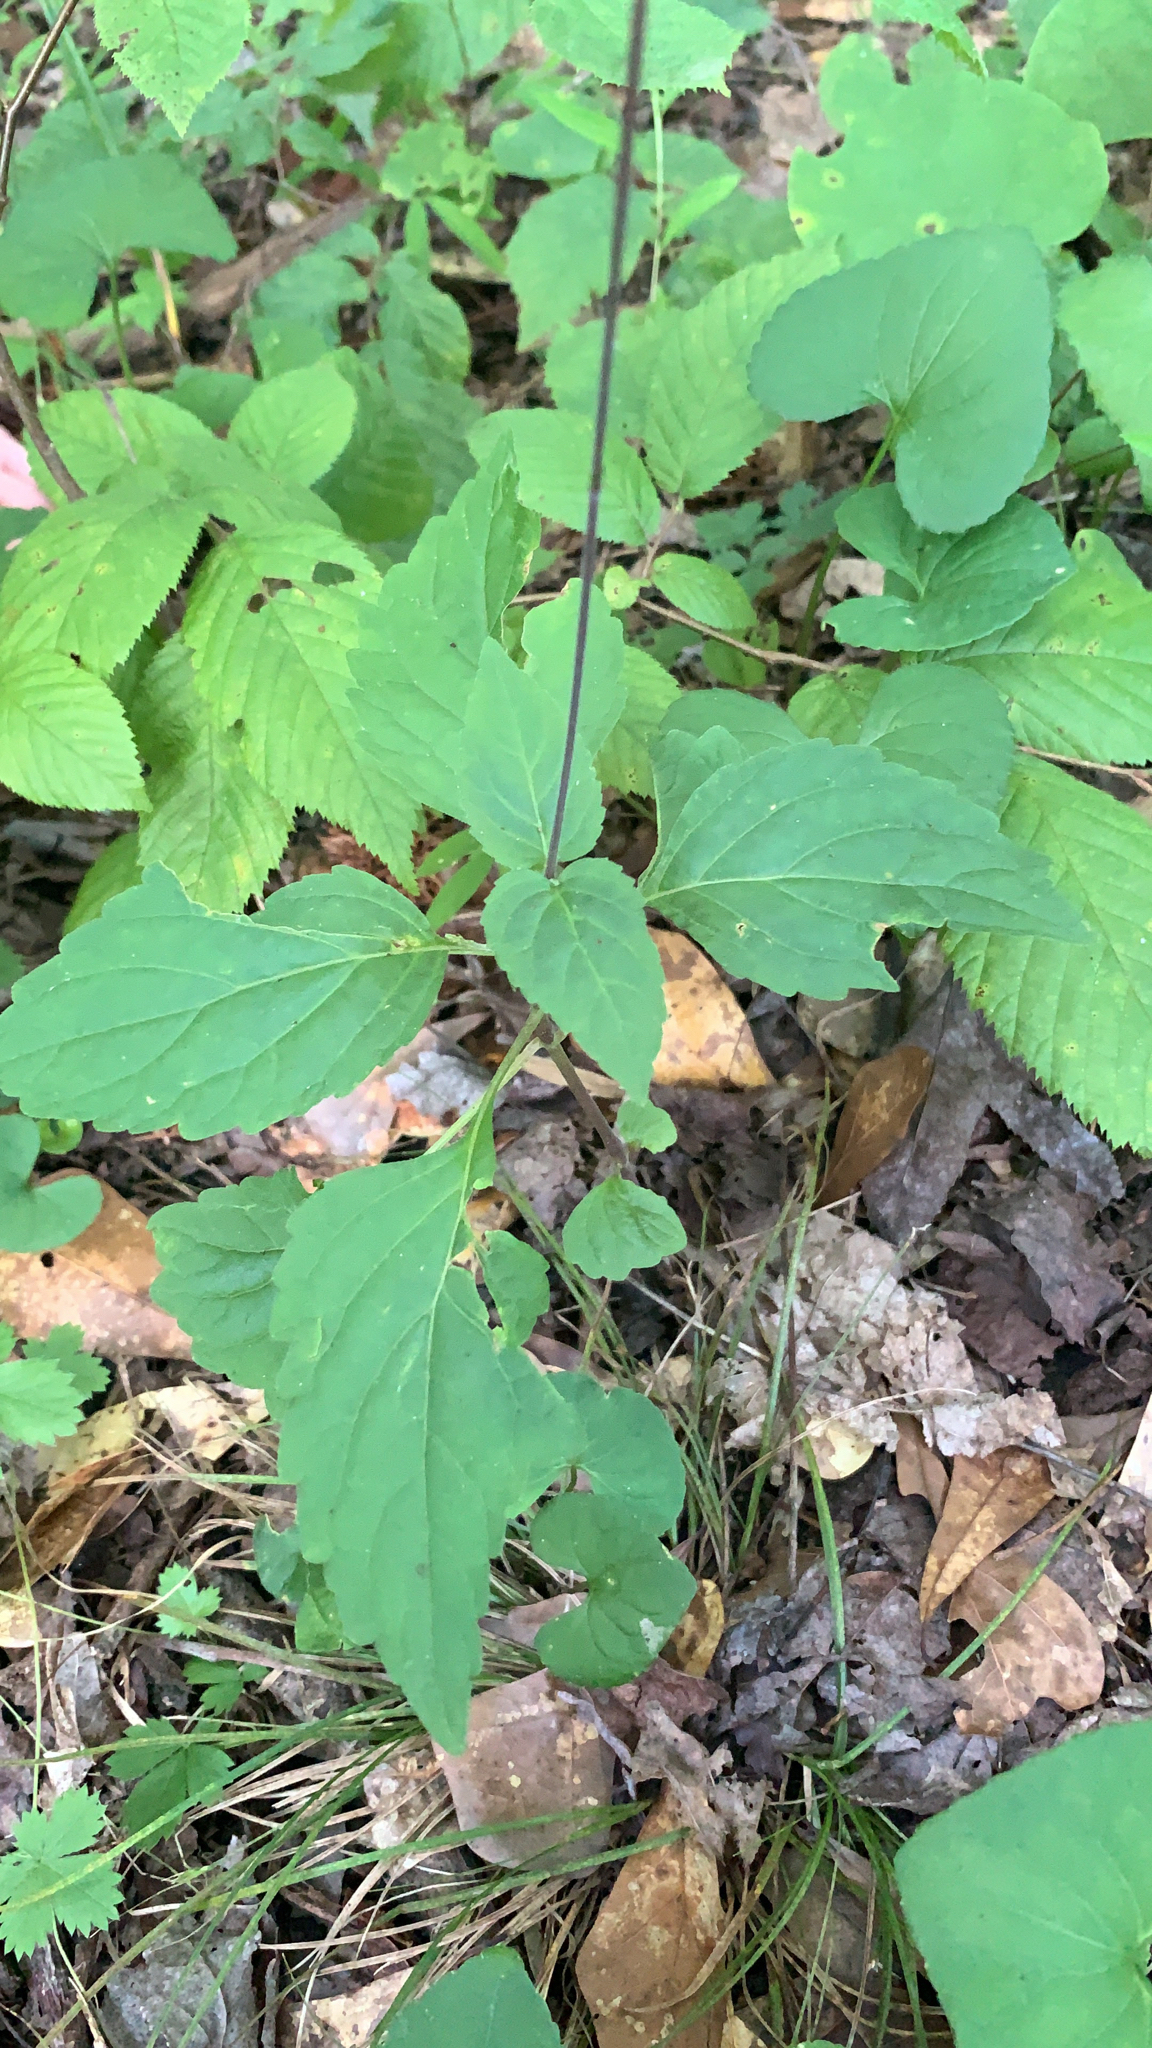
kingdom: Plantae
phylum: Tracheophyta
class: Magnoliopsida
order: Lamiales
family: Phrymaceae
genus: Phryma
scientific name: Phryma leptostachya
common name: American lopseed
